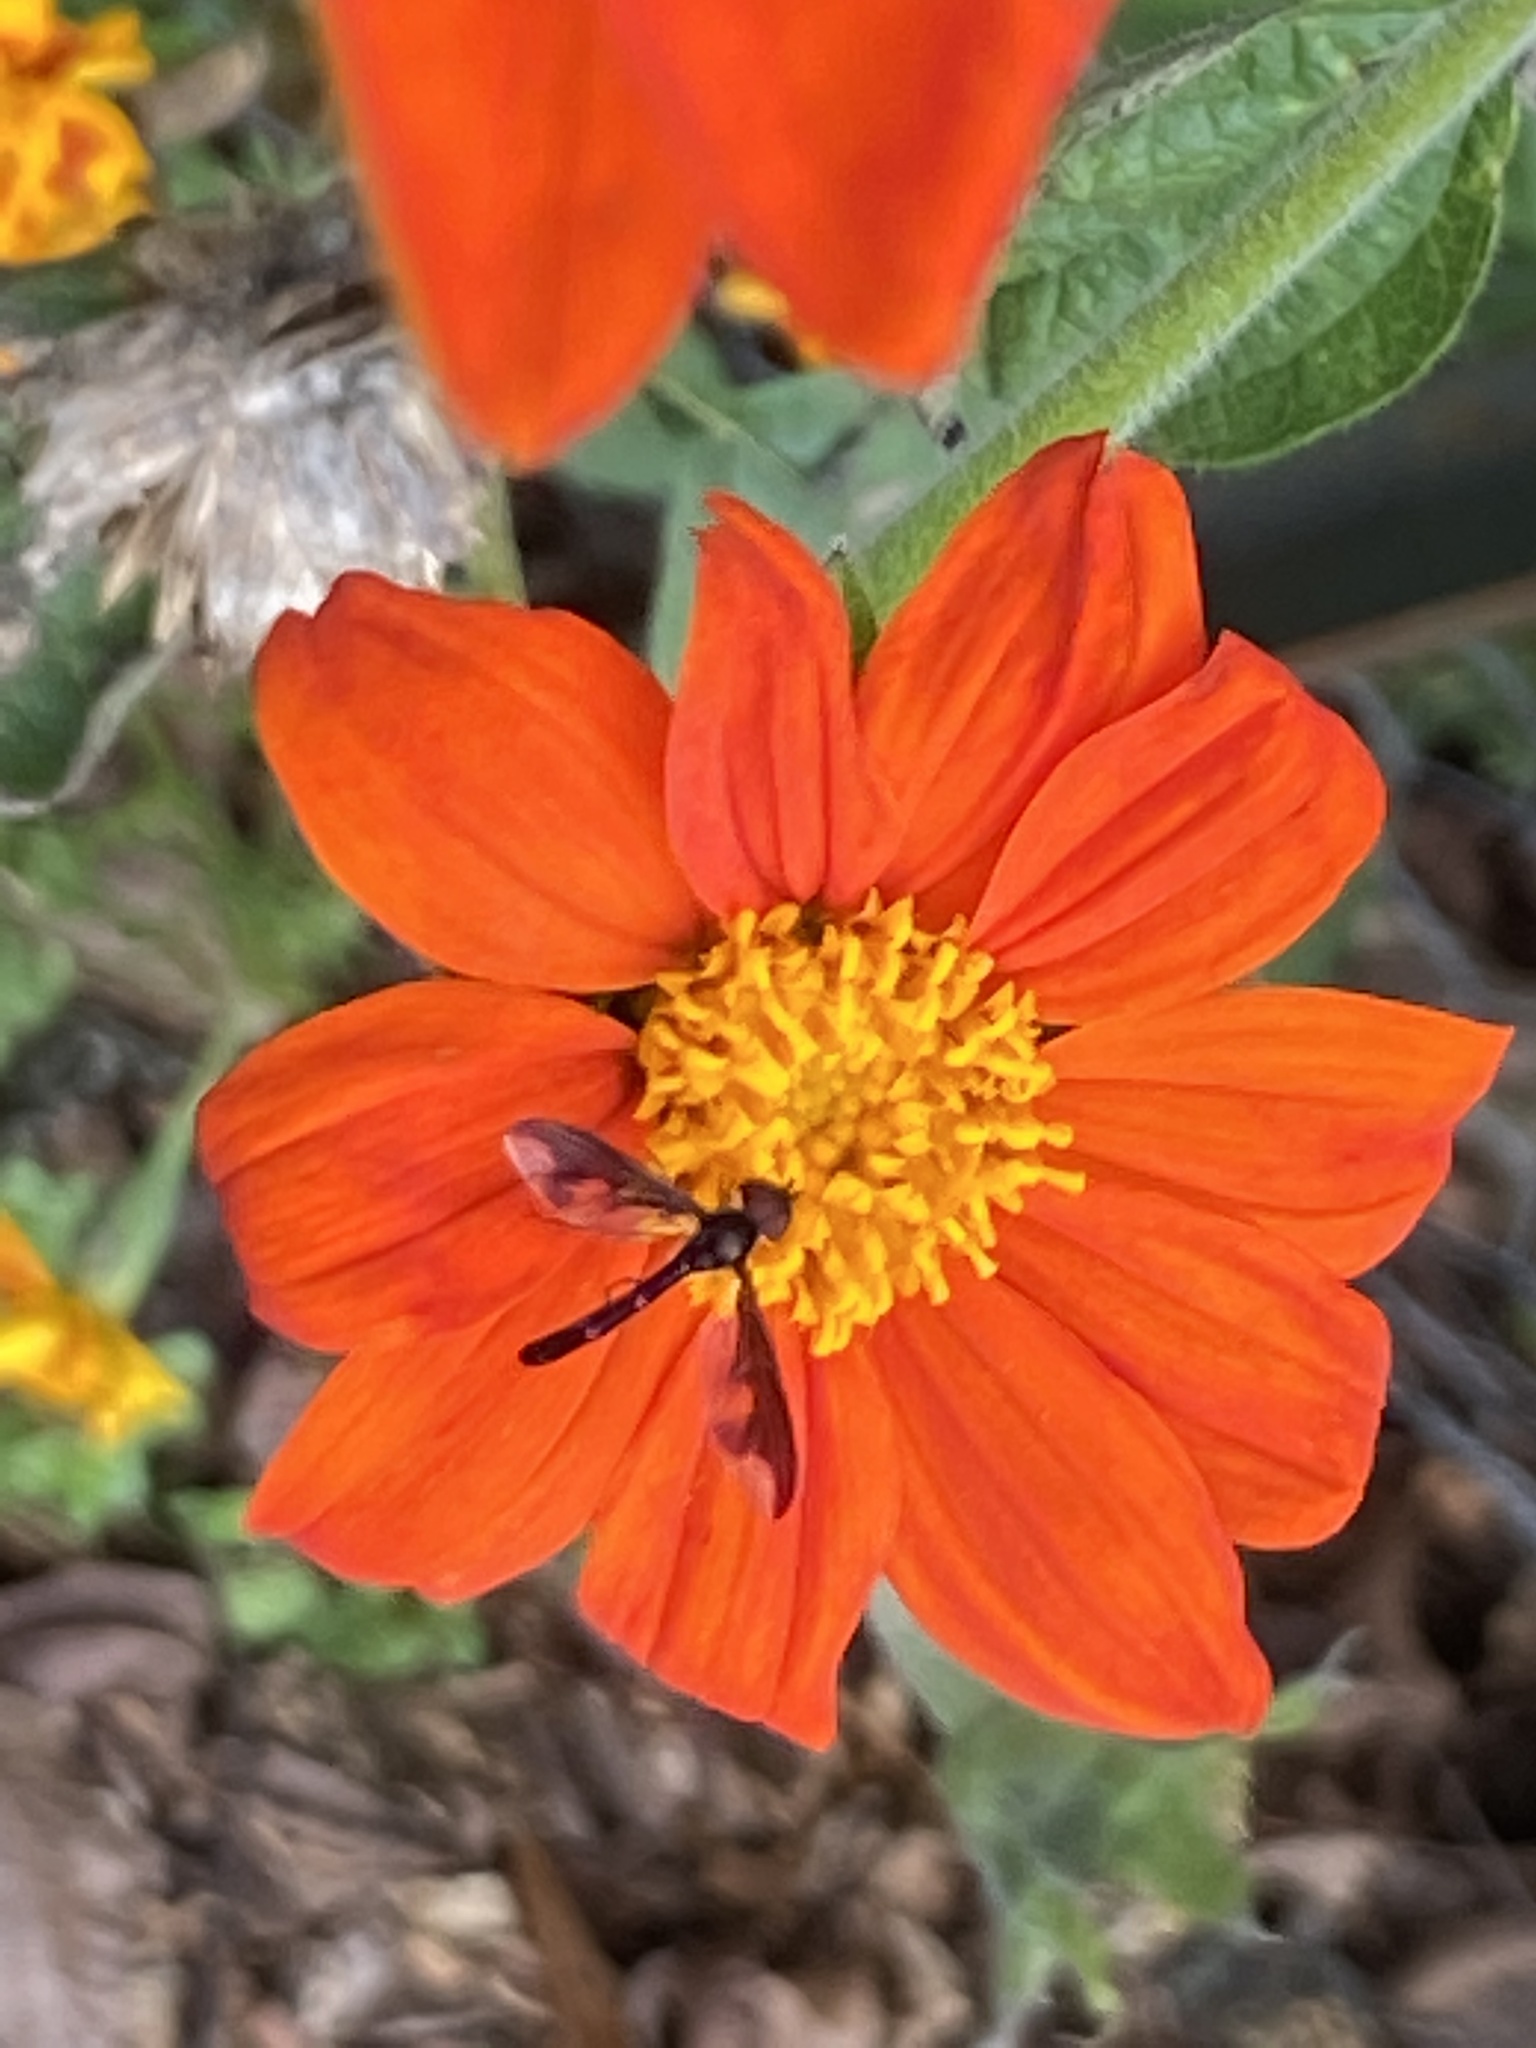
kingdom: Animalia
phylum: Arthropoda
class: Insecta
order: Diptera
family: Syrphidae
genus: Ocyptamus
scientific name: Ocyptamus fuscipennis
